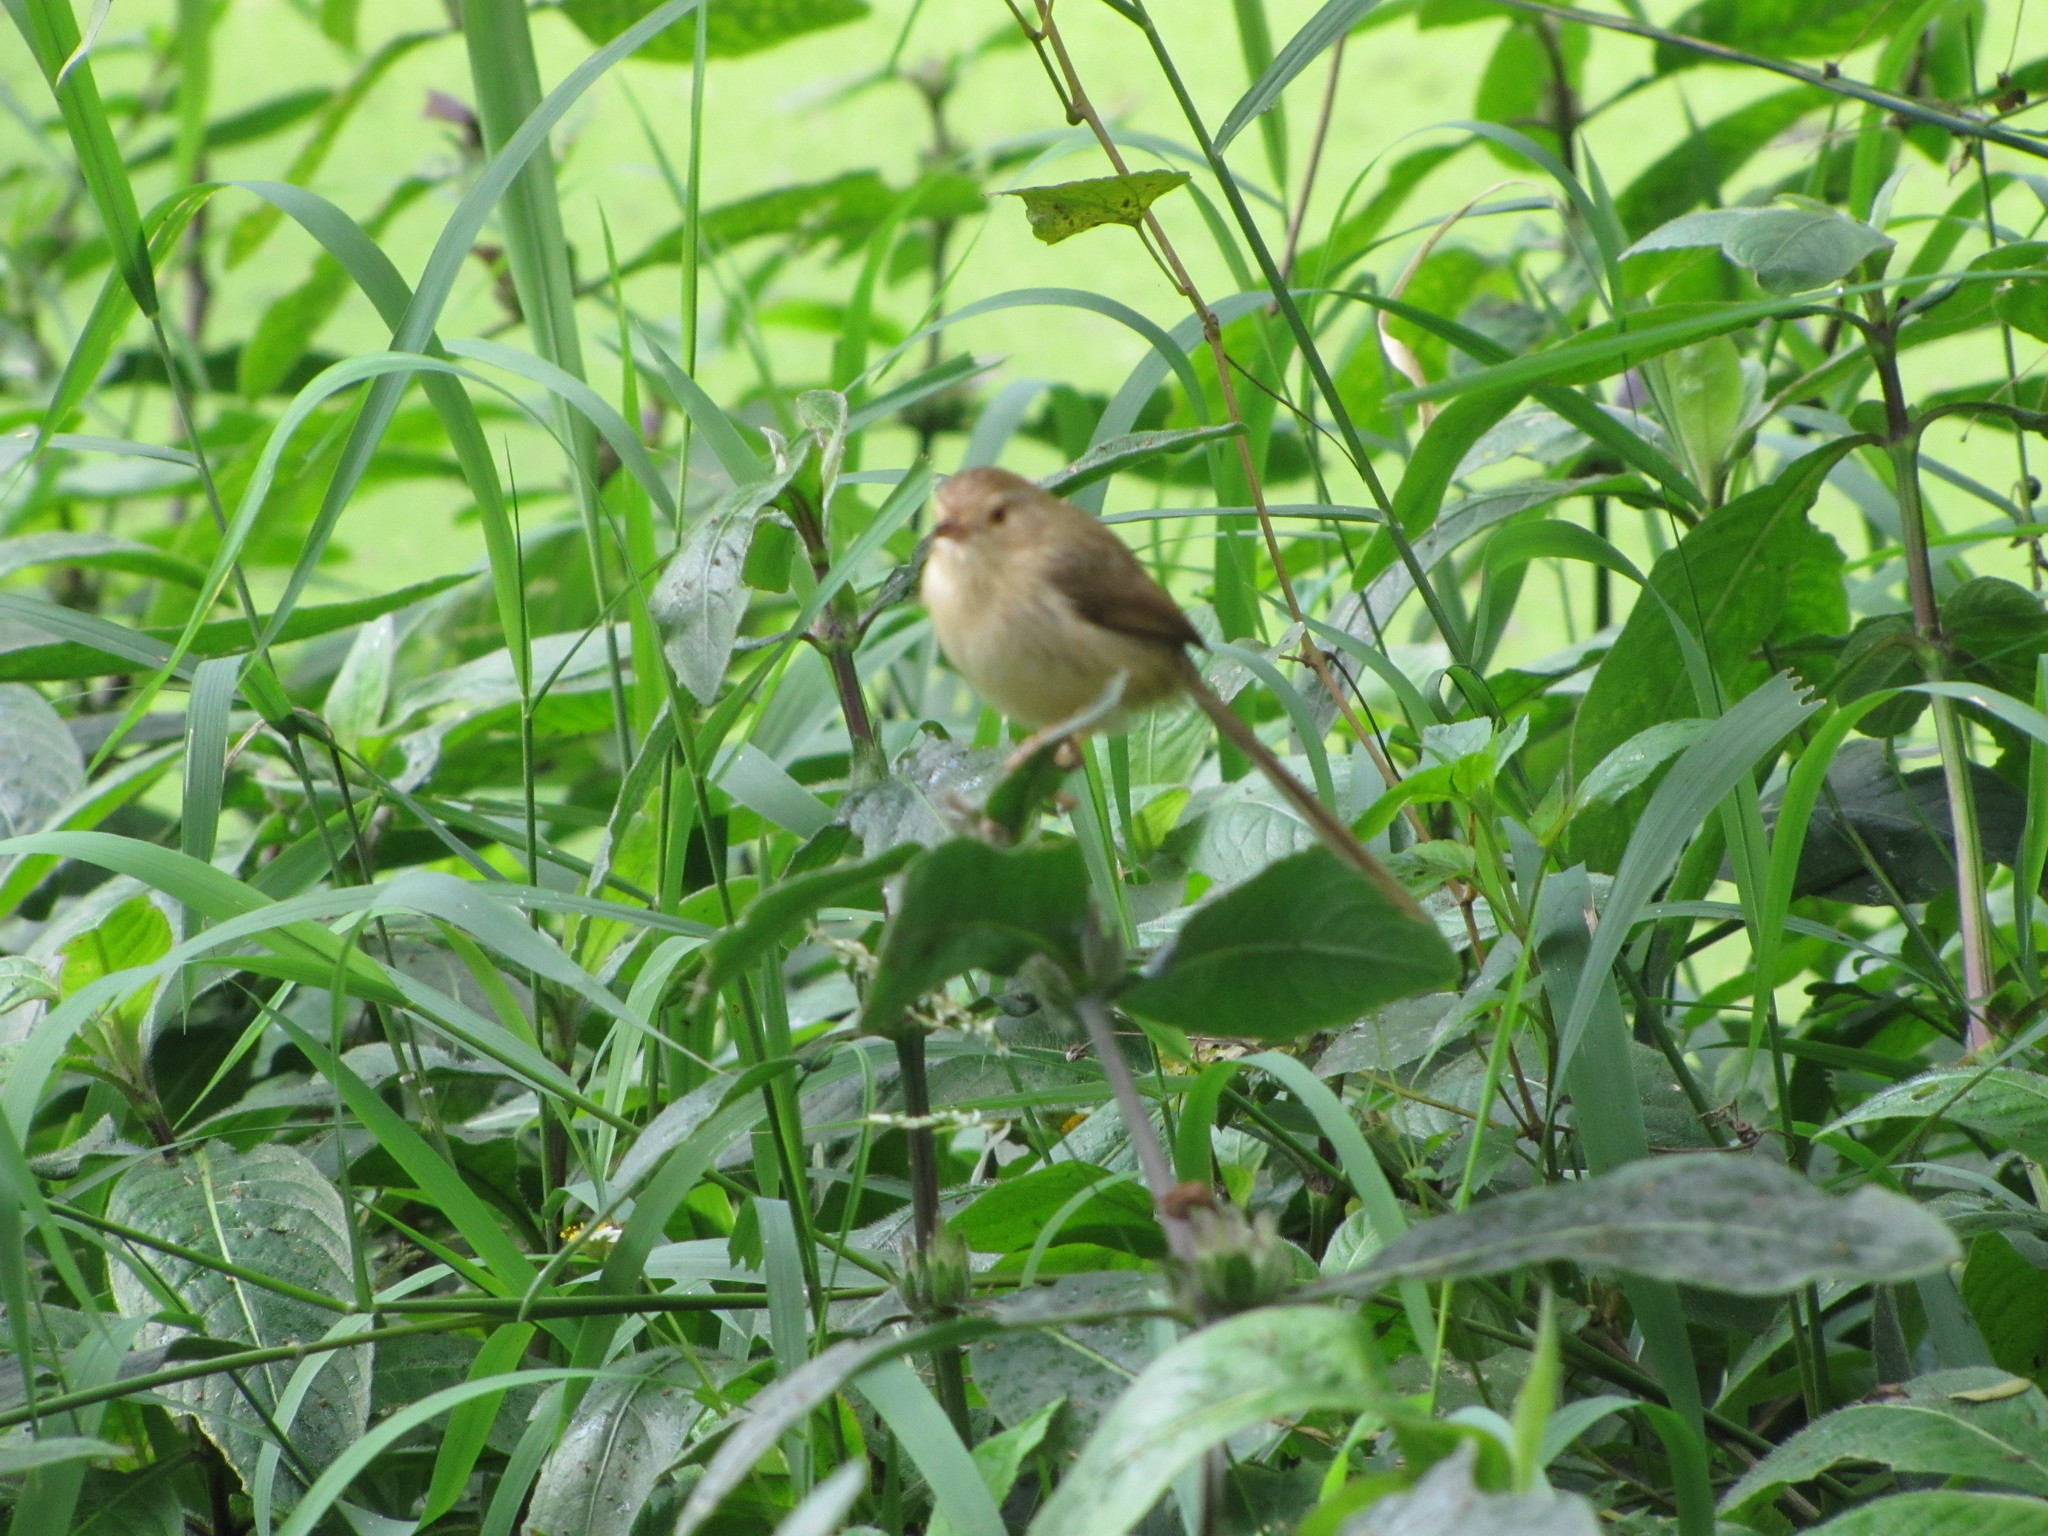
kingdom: Animalia
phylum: Chordata
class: Aves
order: Passeriformes
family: Cisticolidae
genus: Prinia
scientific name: Prinia inornata
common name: Plain prinia
